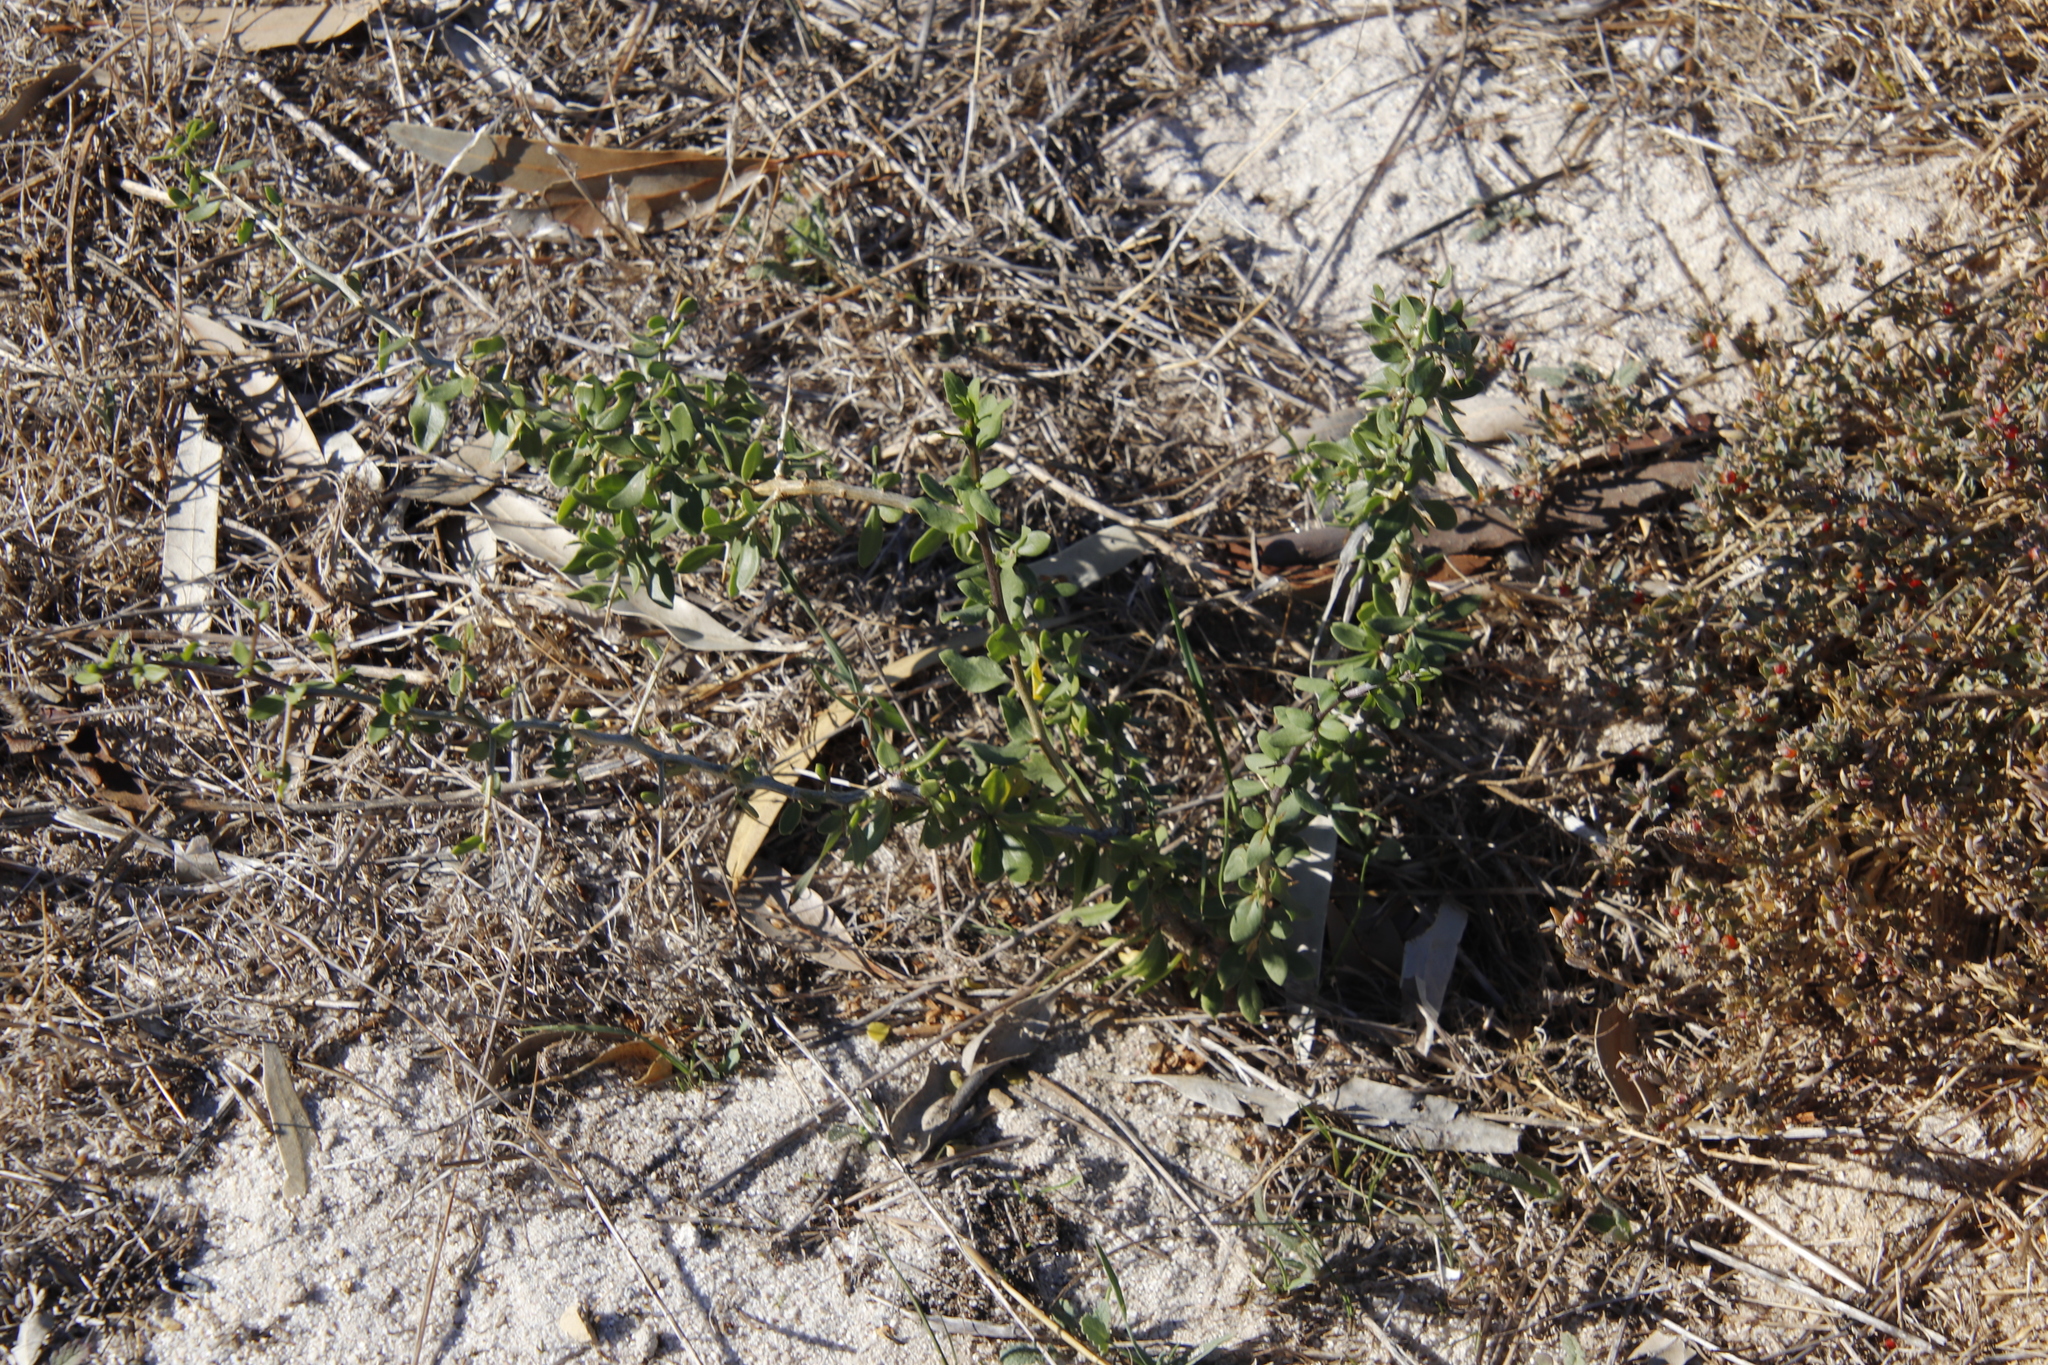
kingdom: Plantae
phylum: Tracheophyta
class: Magnoliopsida
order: Solanales
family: Solanaceae
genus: Lycium
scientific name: Lycium ferocissimum
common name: African boxthorn
